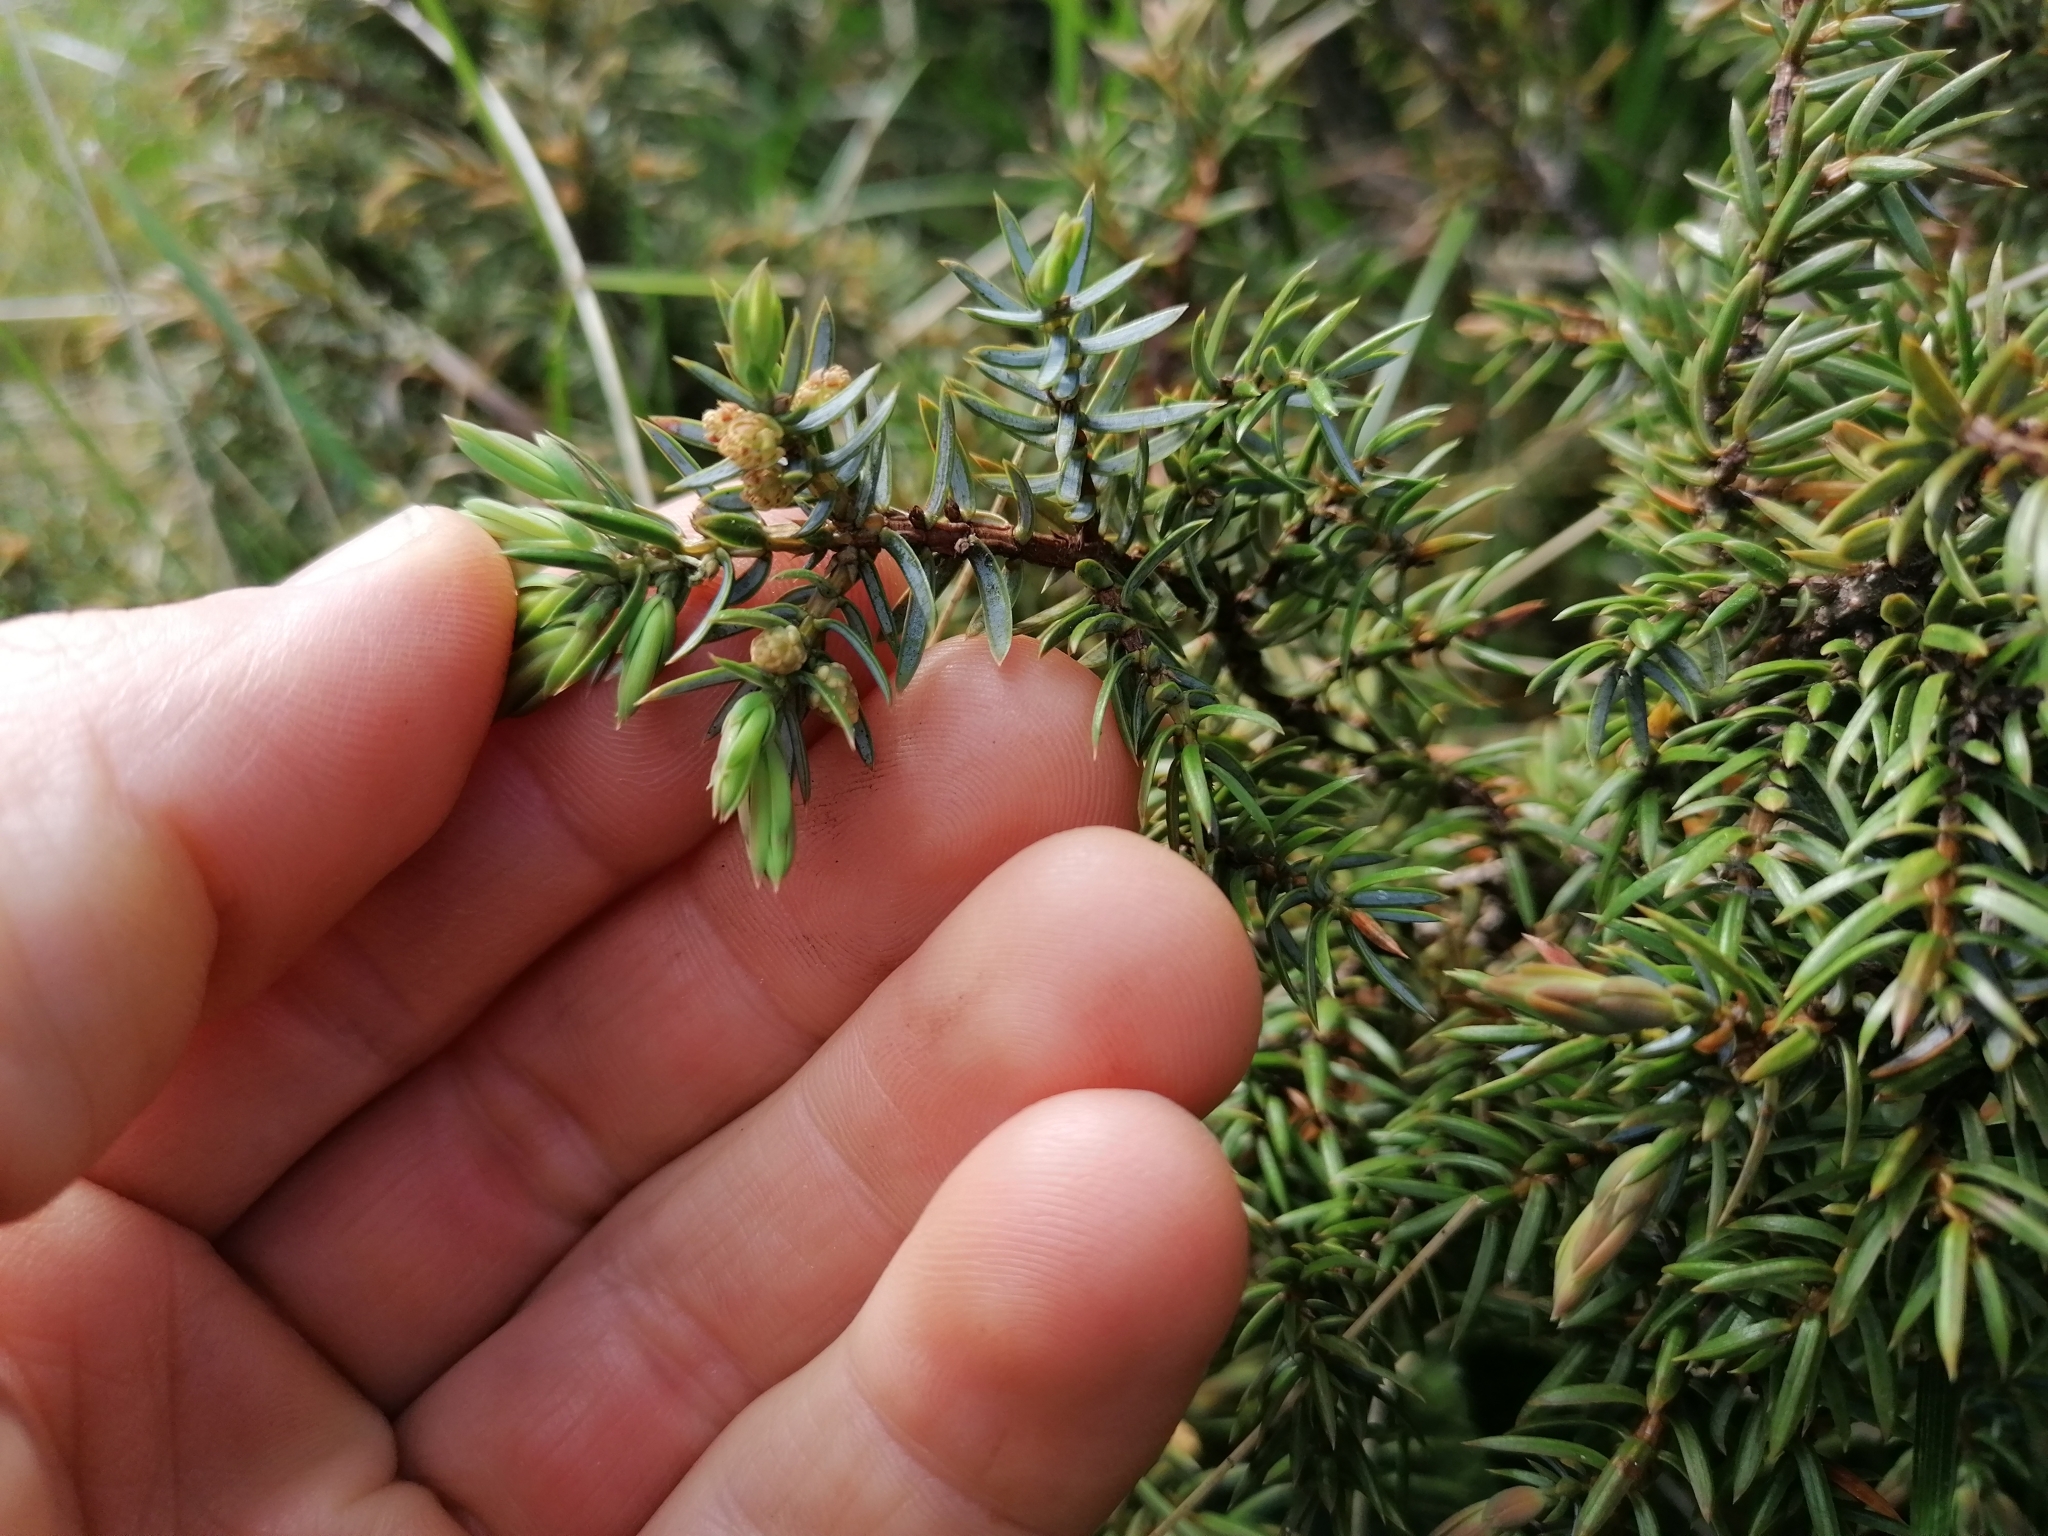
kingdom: Plantae
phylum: Tracheophyta
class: Pinopsida
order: Pinales
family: Cupressaceae
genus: Juniperus
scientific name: Juniperus communis
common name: Common juniper
